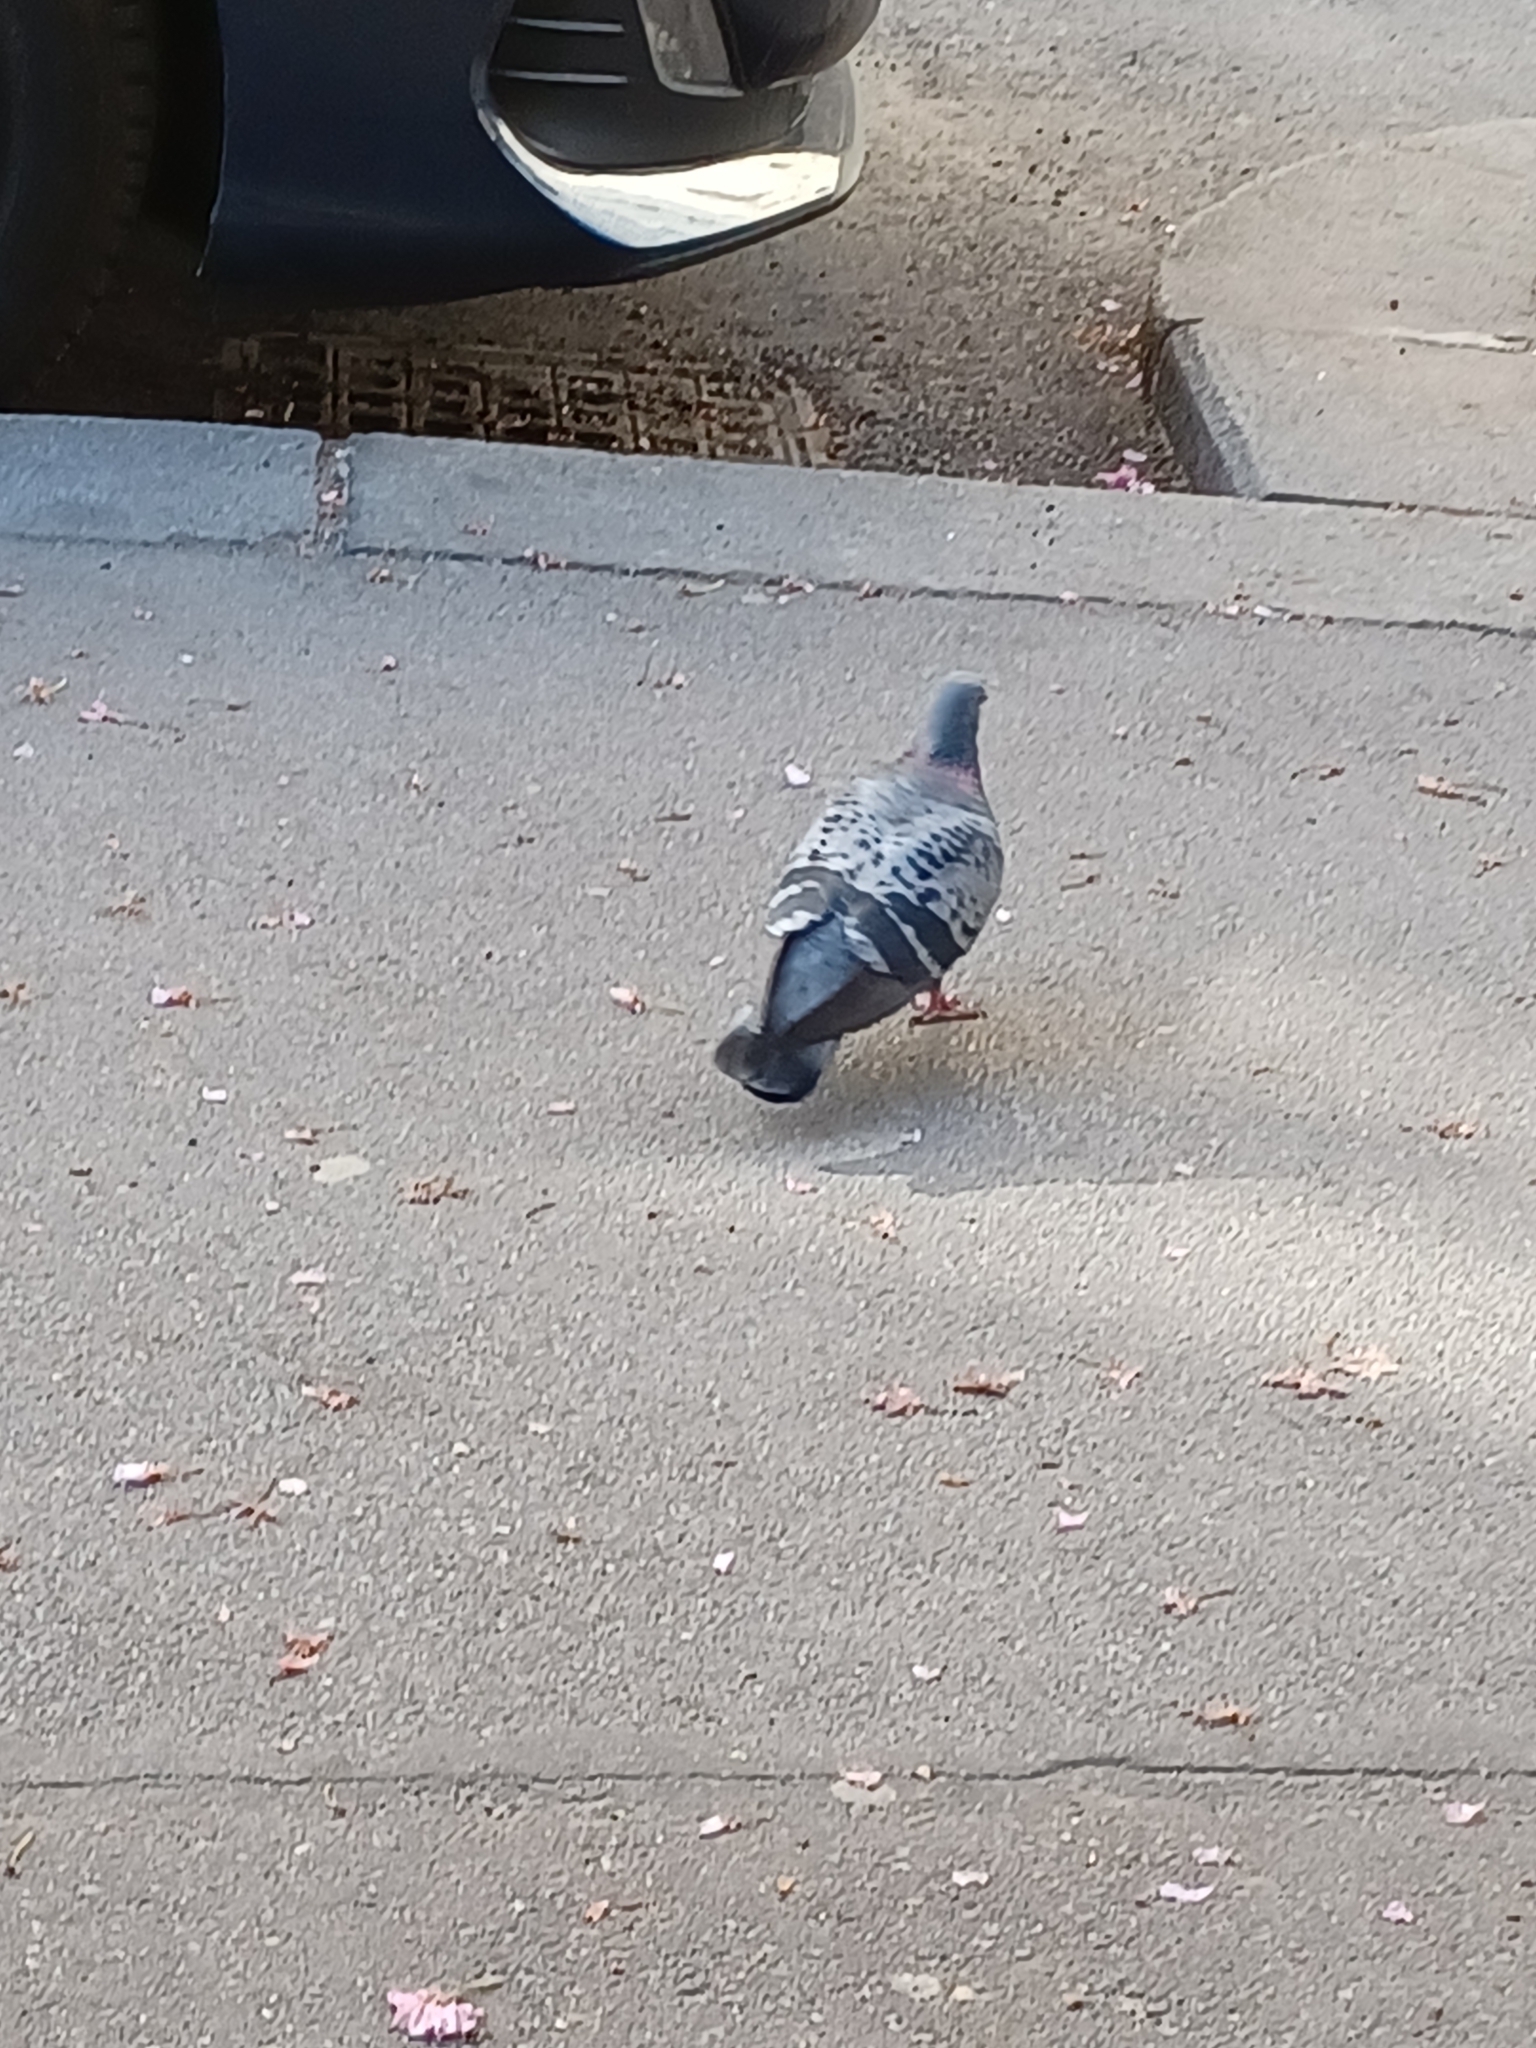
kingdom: Animalia
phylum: Chordata
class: Aves
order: Columbiformes
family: Columbidae
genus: Columba
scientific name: Columba livia
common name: Rock pigeon
